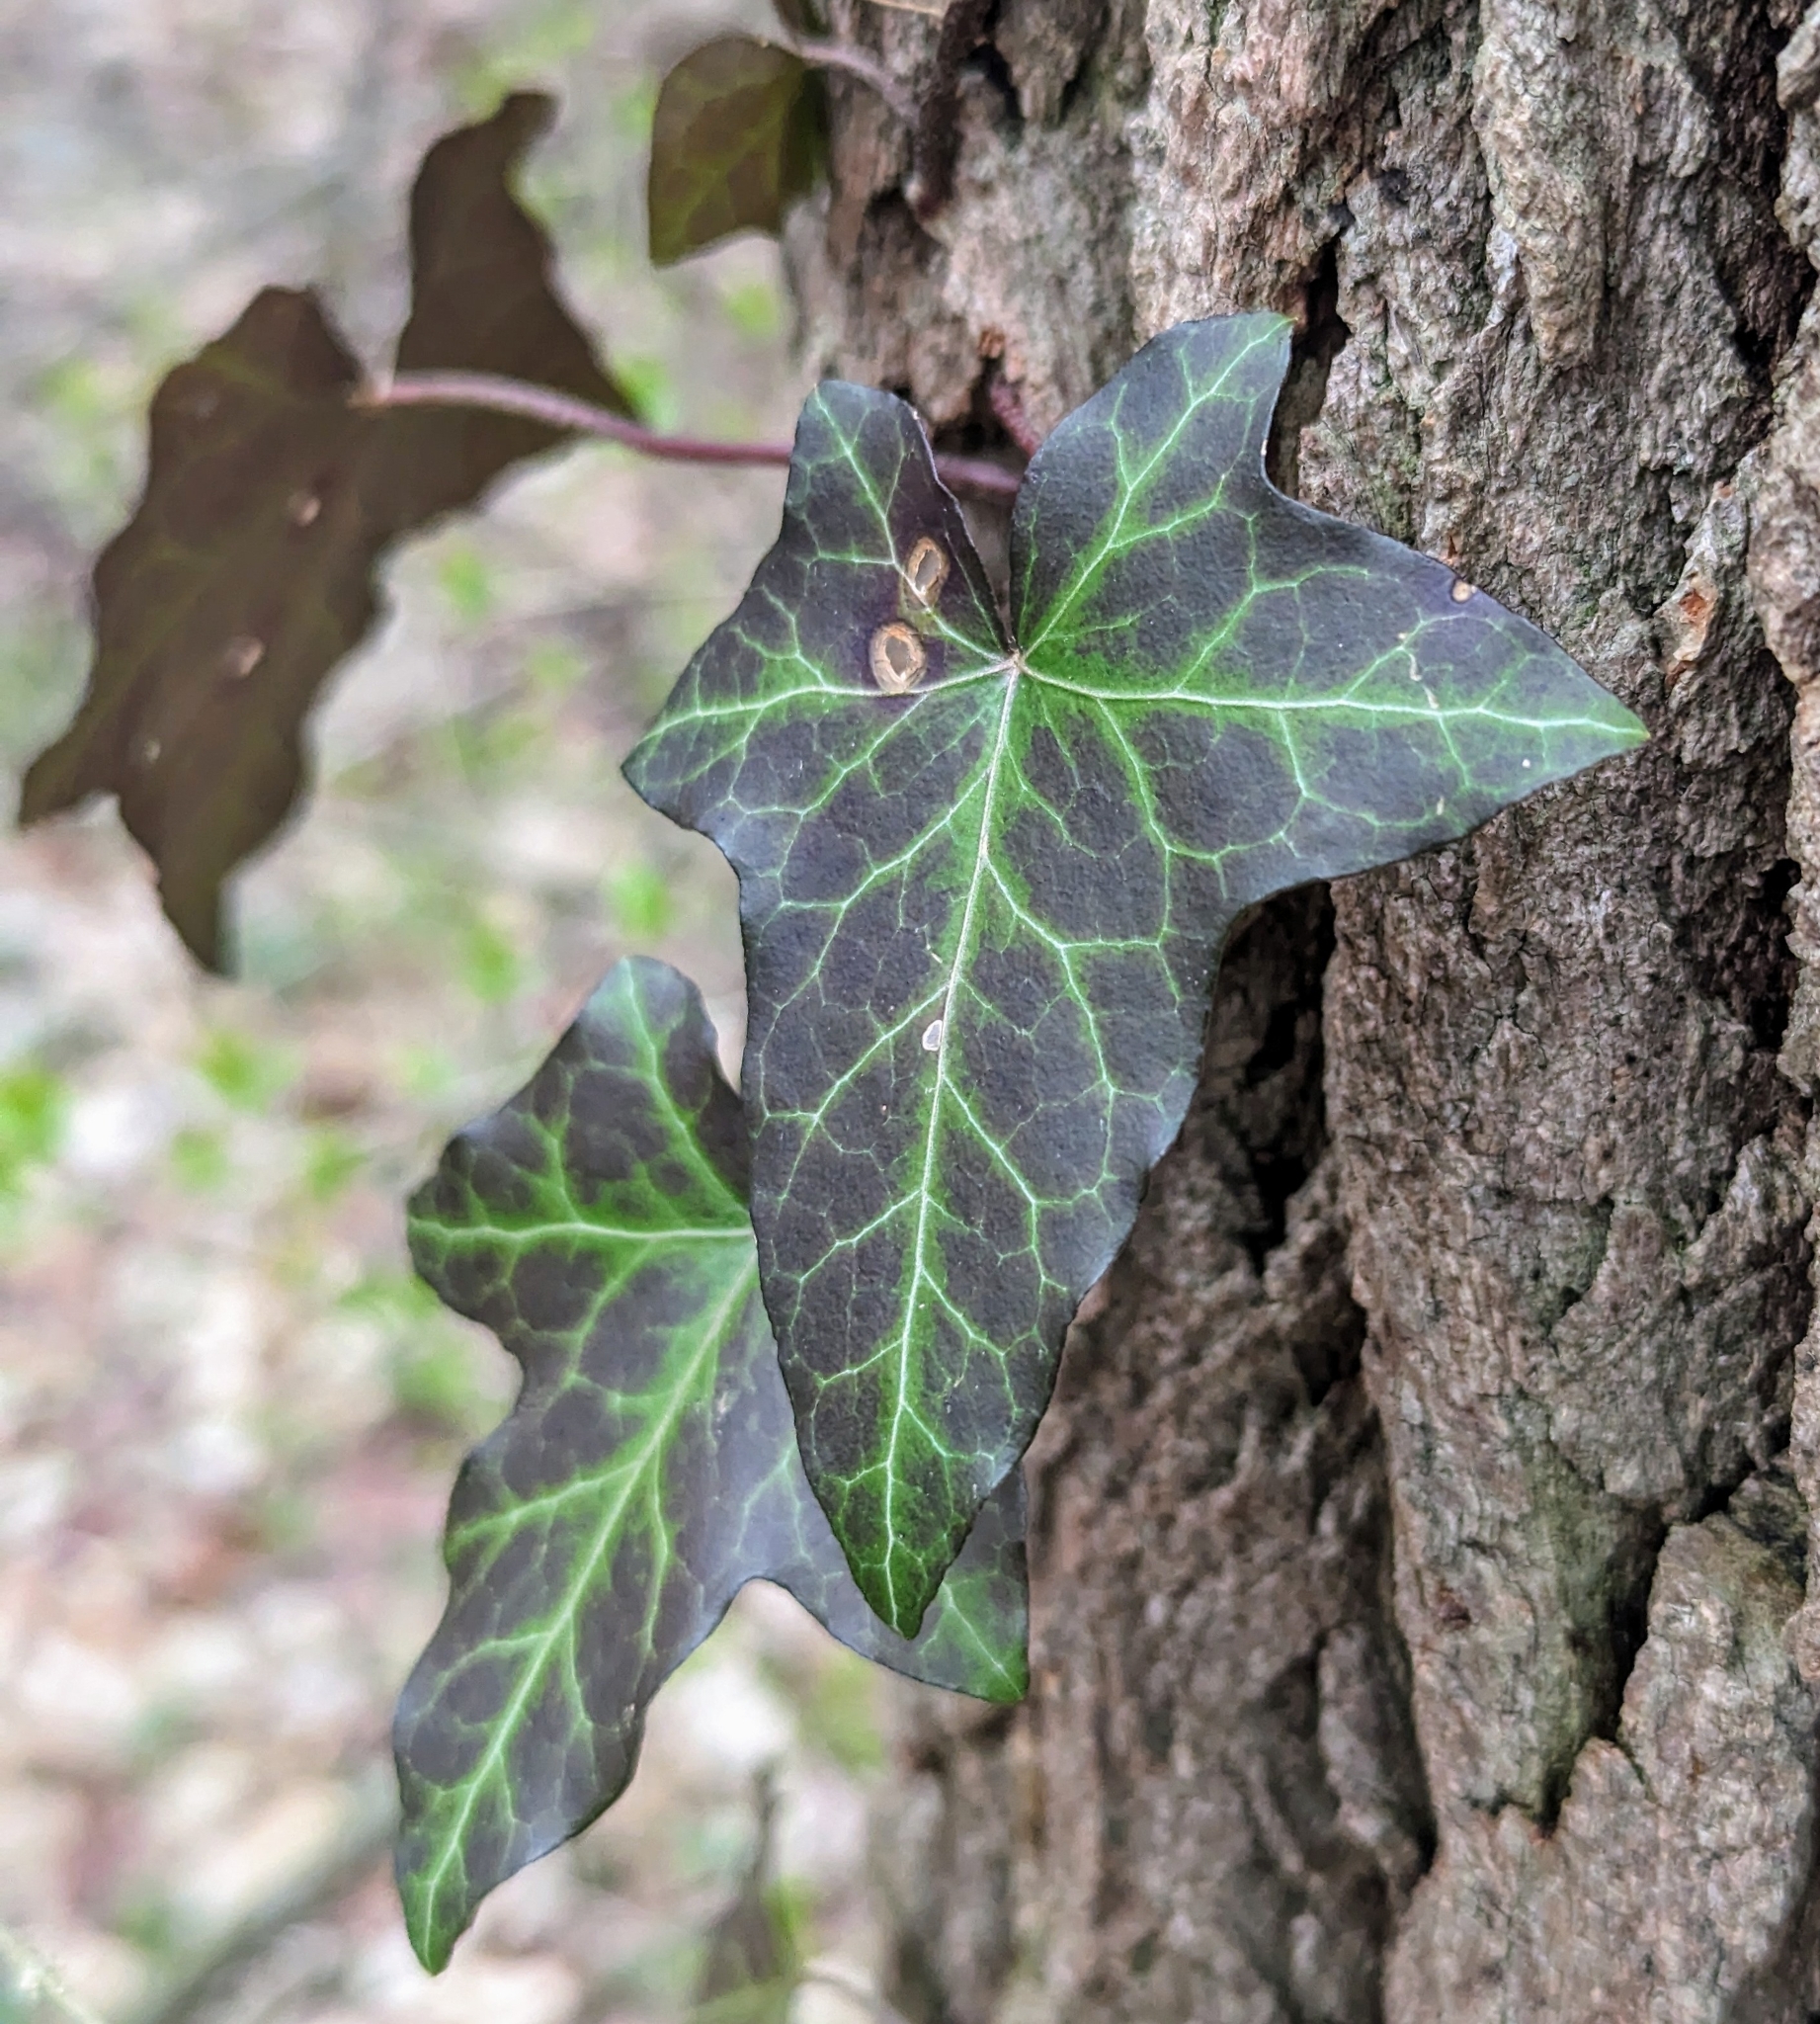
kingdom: Plantae
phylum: Tracheophyta
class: Magnoliopsida
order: Apiales
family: Araliaceae
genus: Hedera
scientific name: Hedera helix
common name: Ivy
